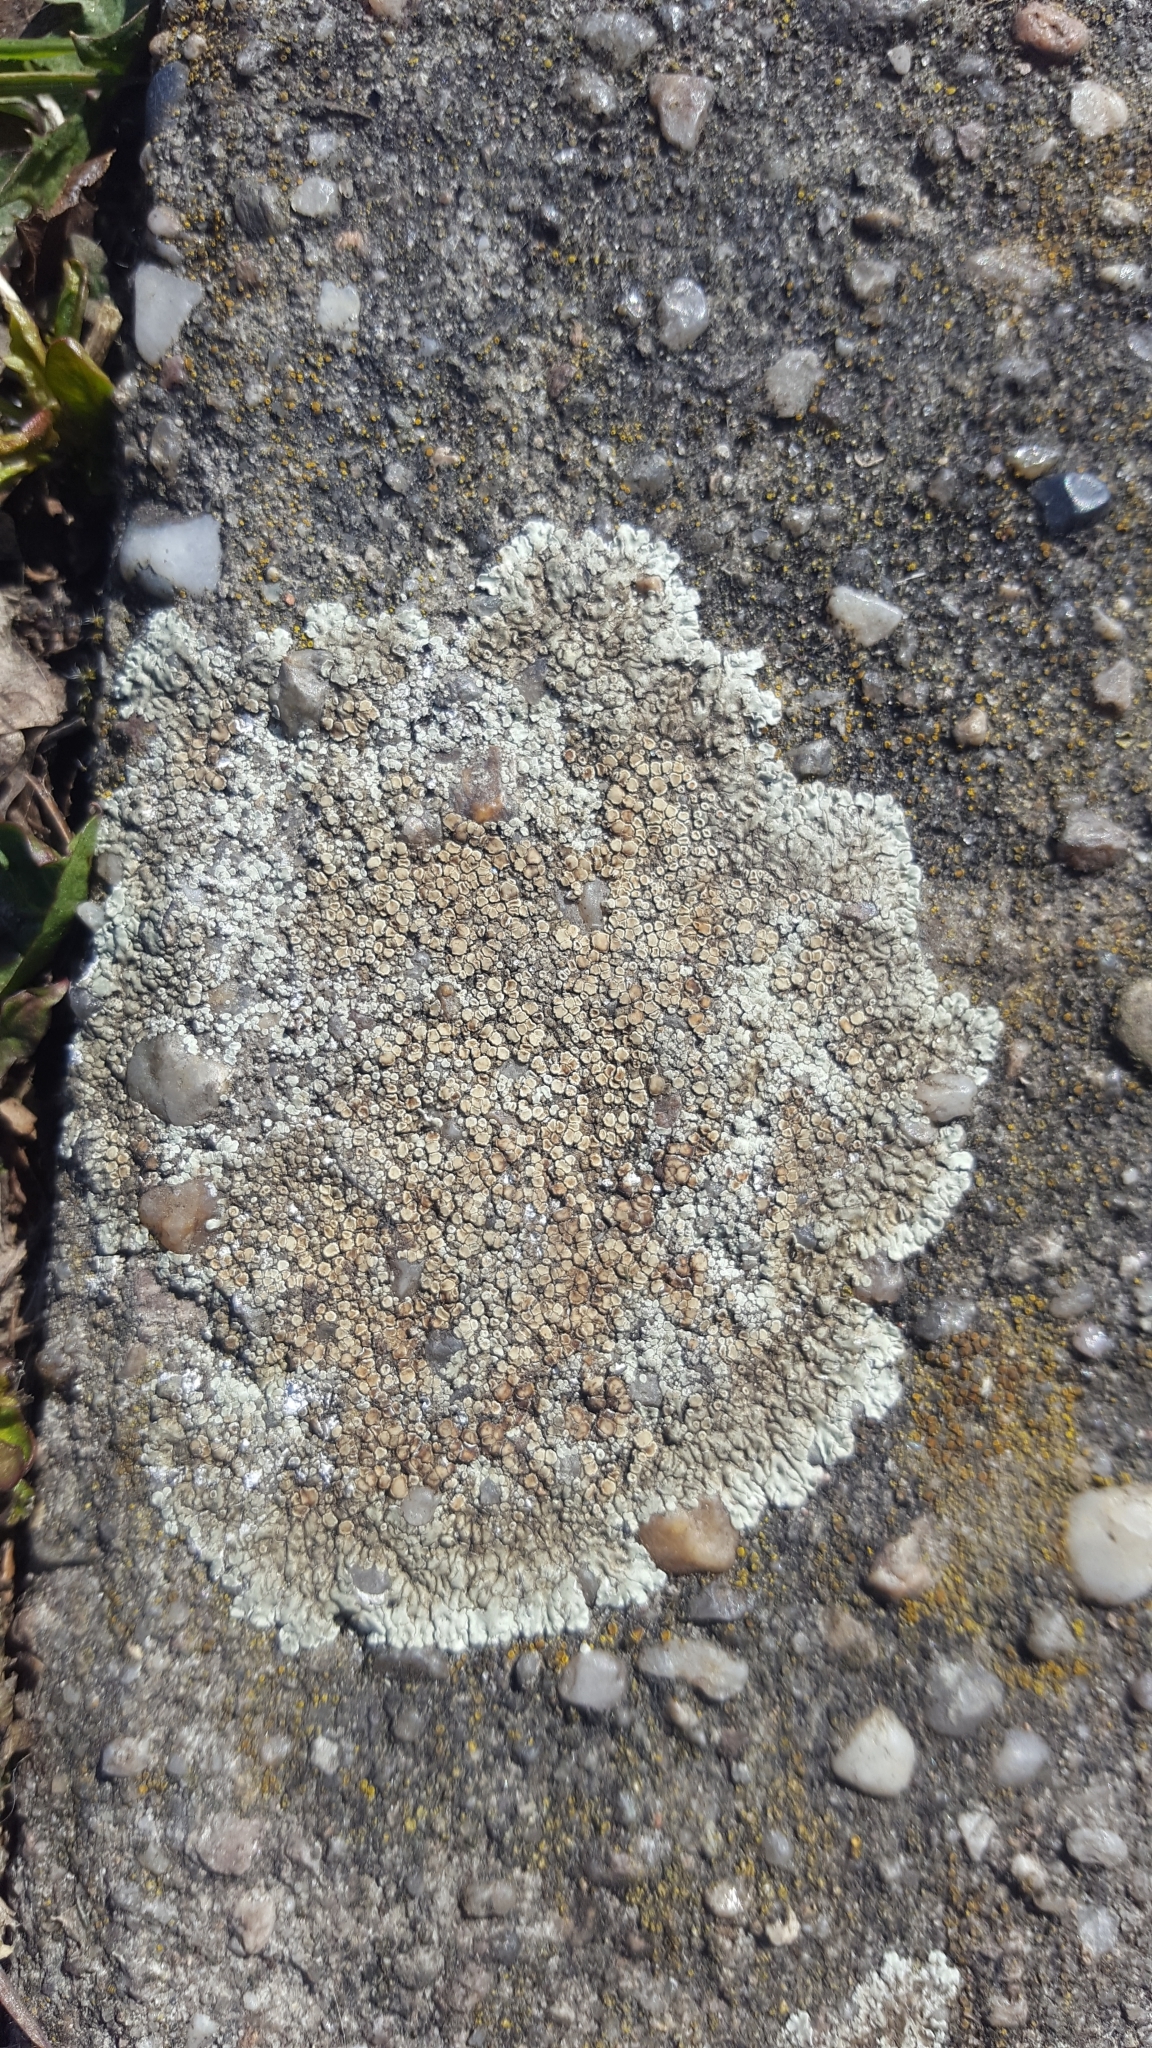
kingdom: Fungi
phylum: Ascomycota
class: Lecanoromycetes
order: Lecanorales
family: Lecanoraceae
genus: Protoparmeliopsis
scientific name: Protoparmeliopsis muralis
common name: Stonewall rim lichen
